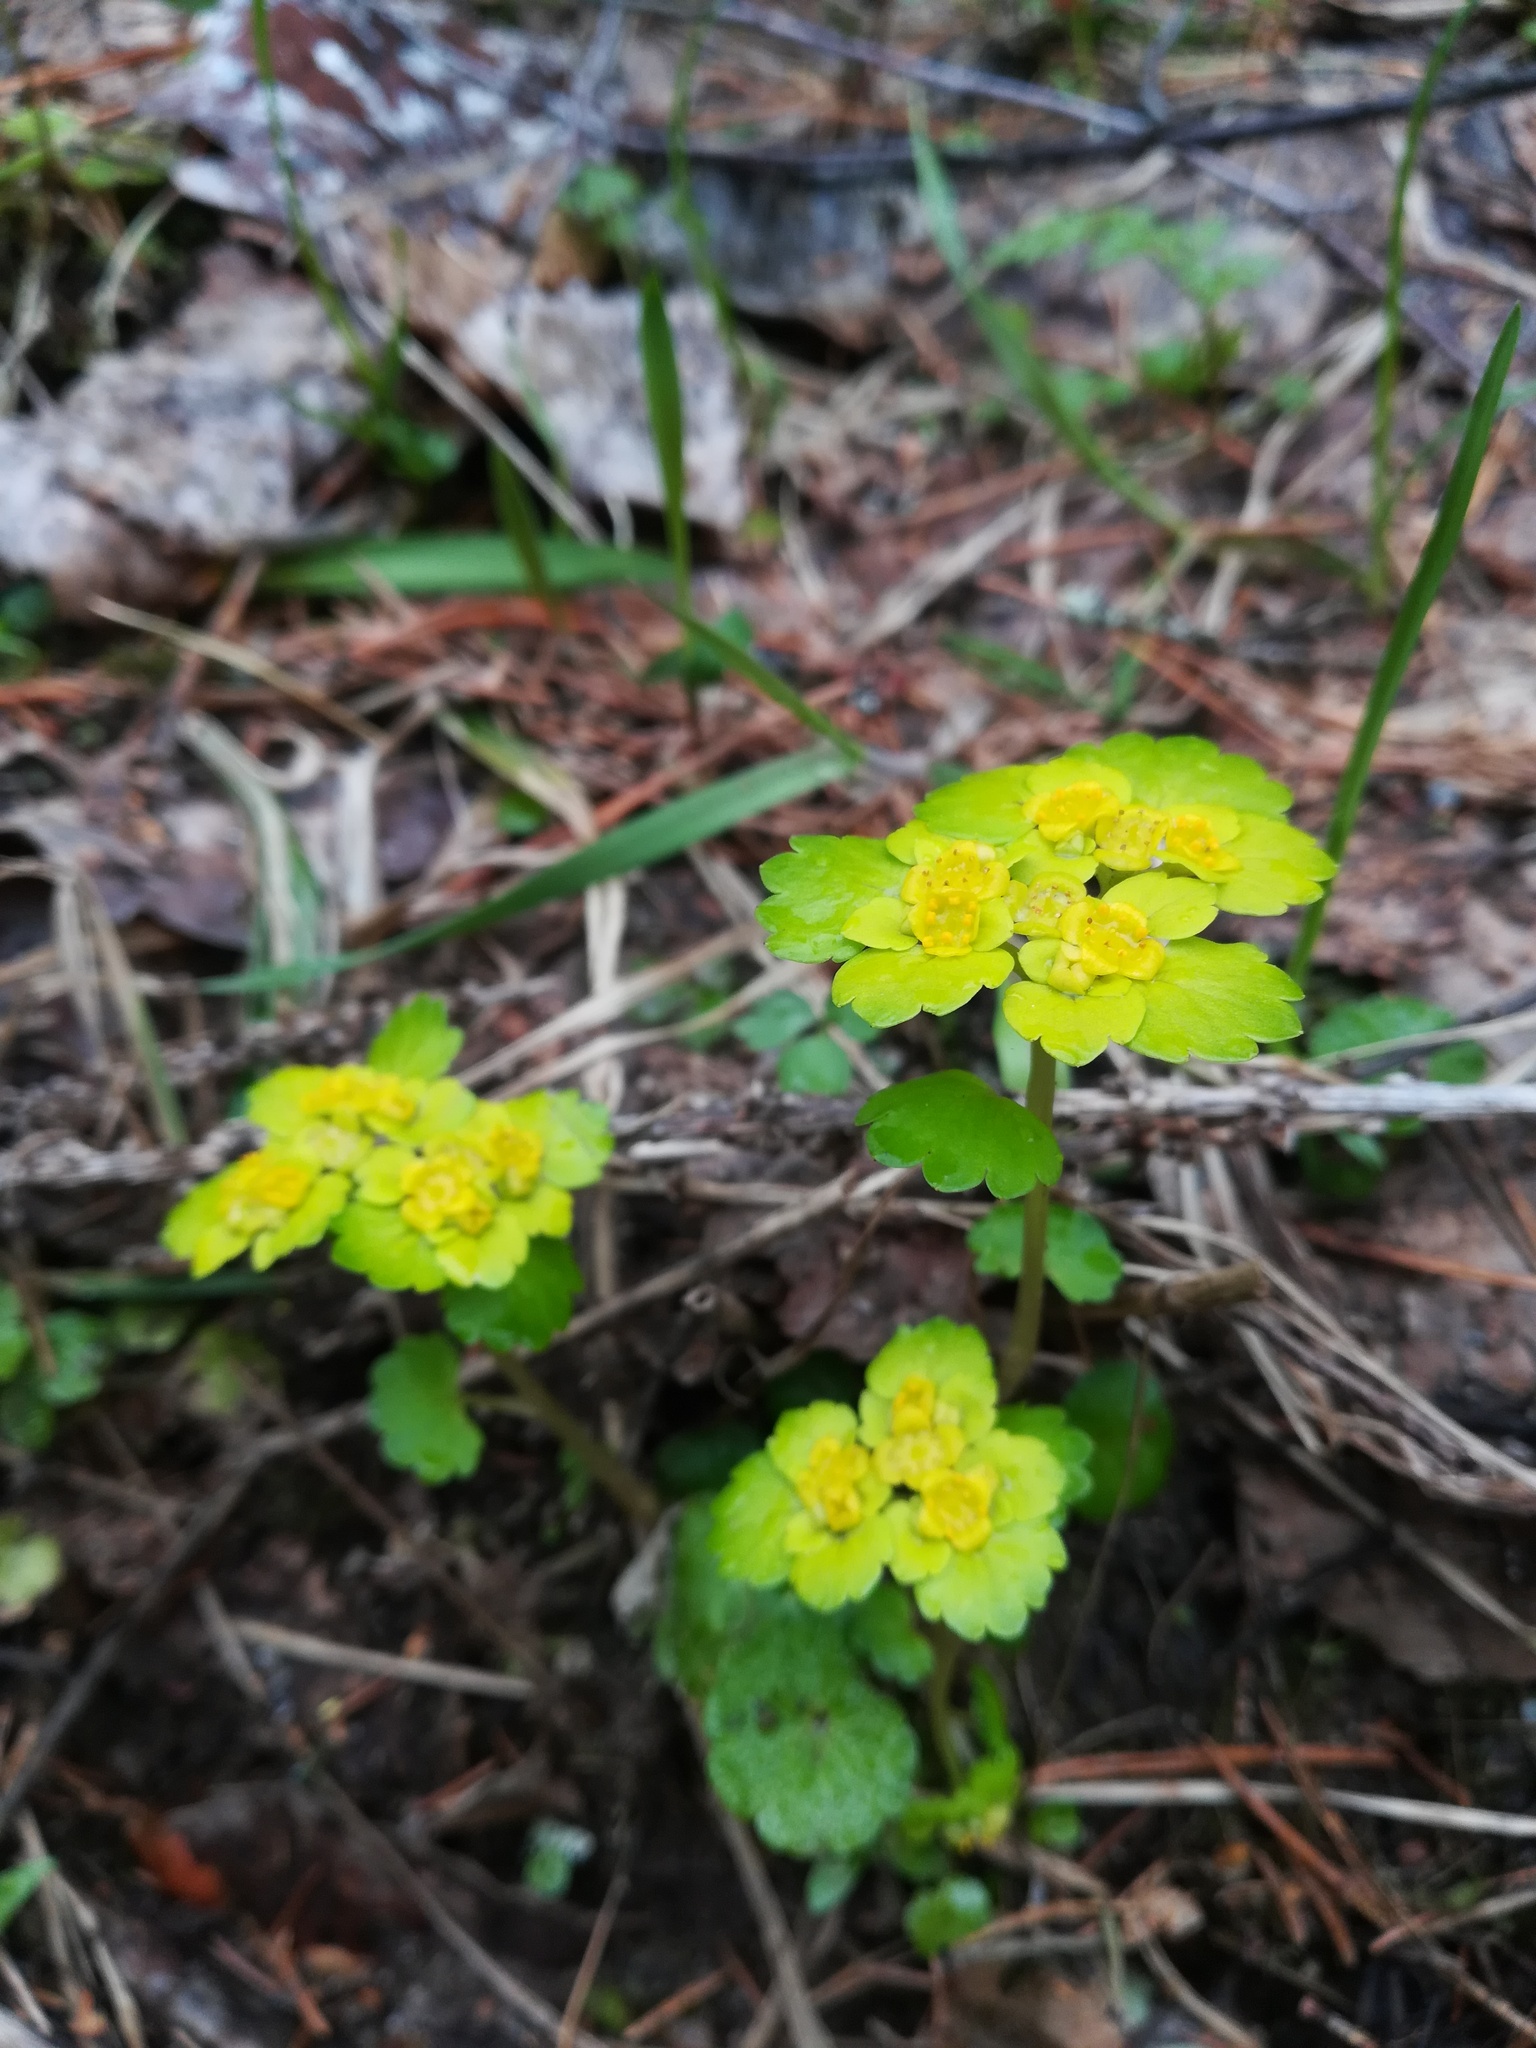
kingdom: Plantae
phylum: Tracheophyta
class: Magnoliopsida
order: Saxifragales
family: Saxifragaceae
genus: Chrysosplenium
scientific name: Chrysosplenium alternifolium
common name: Alternate-leaved golden-saxifrage
